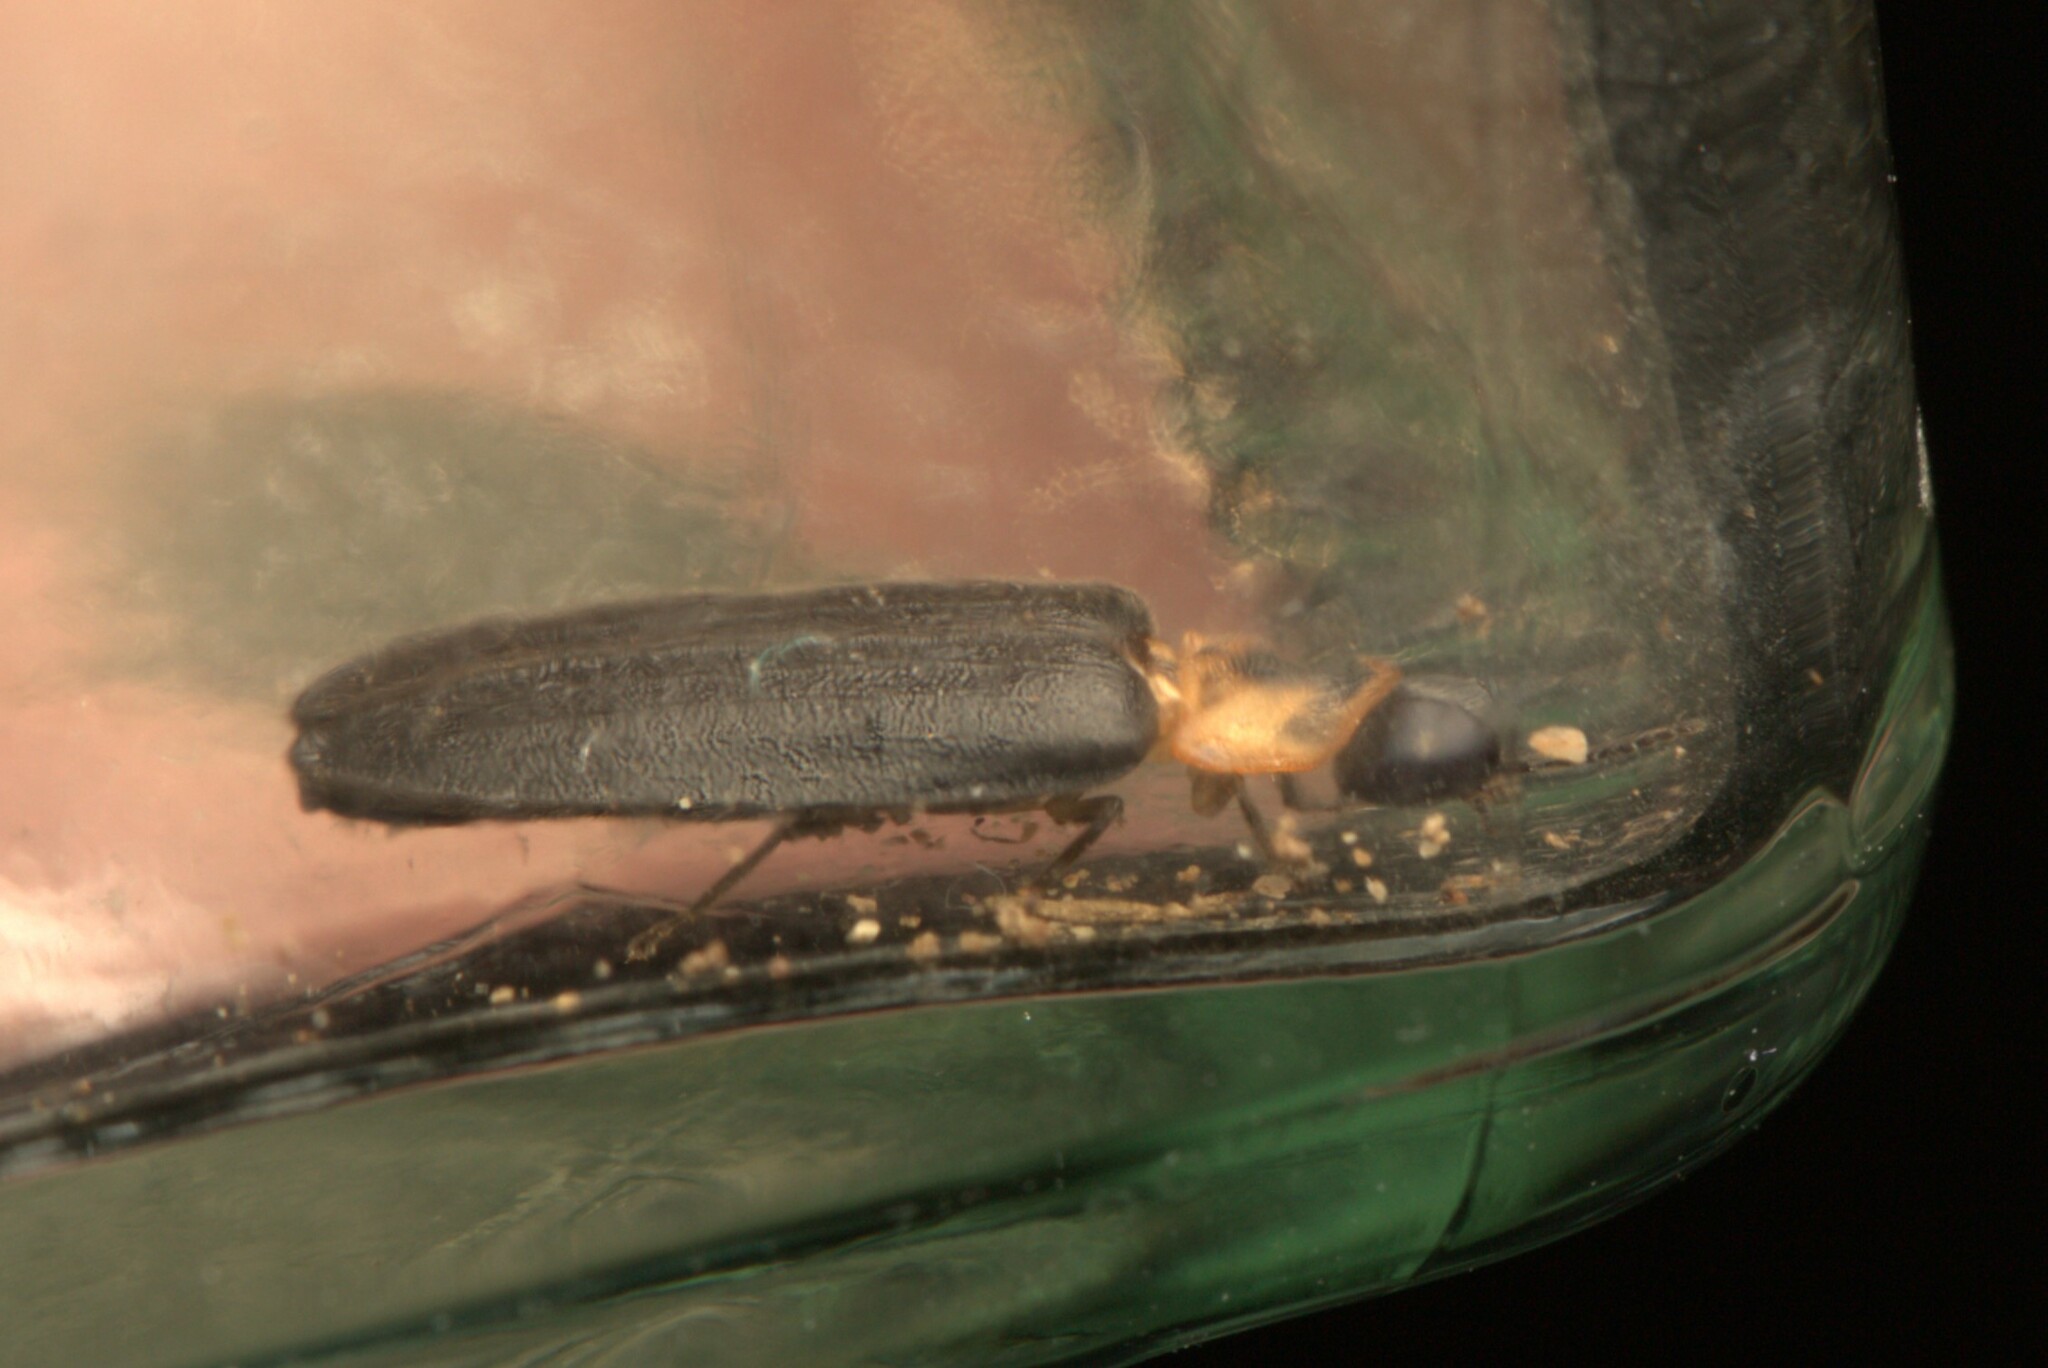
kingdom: Animalia
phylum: Arthropoda
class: Insecta
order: Coleoptera
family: Lampyridae
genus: Atyphella
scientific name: Atyphella scintillans
